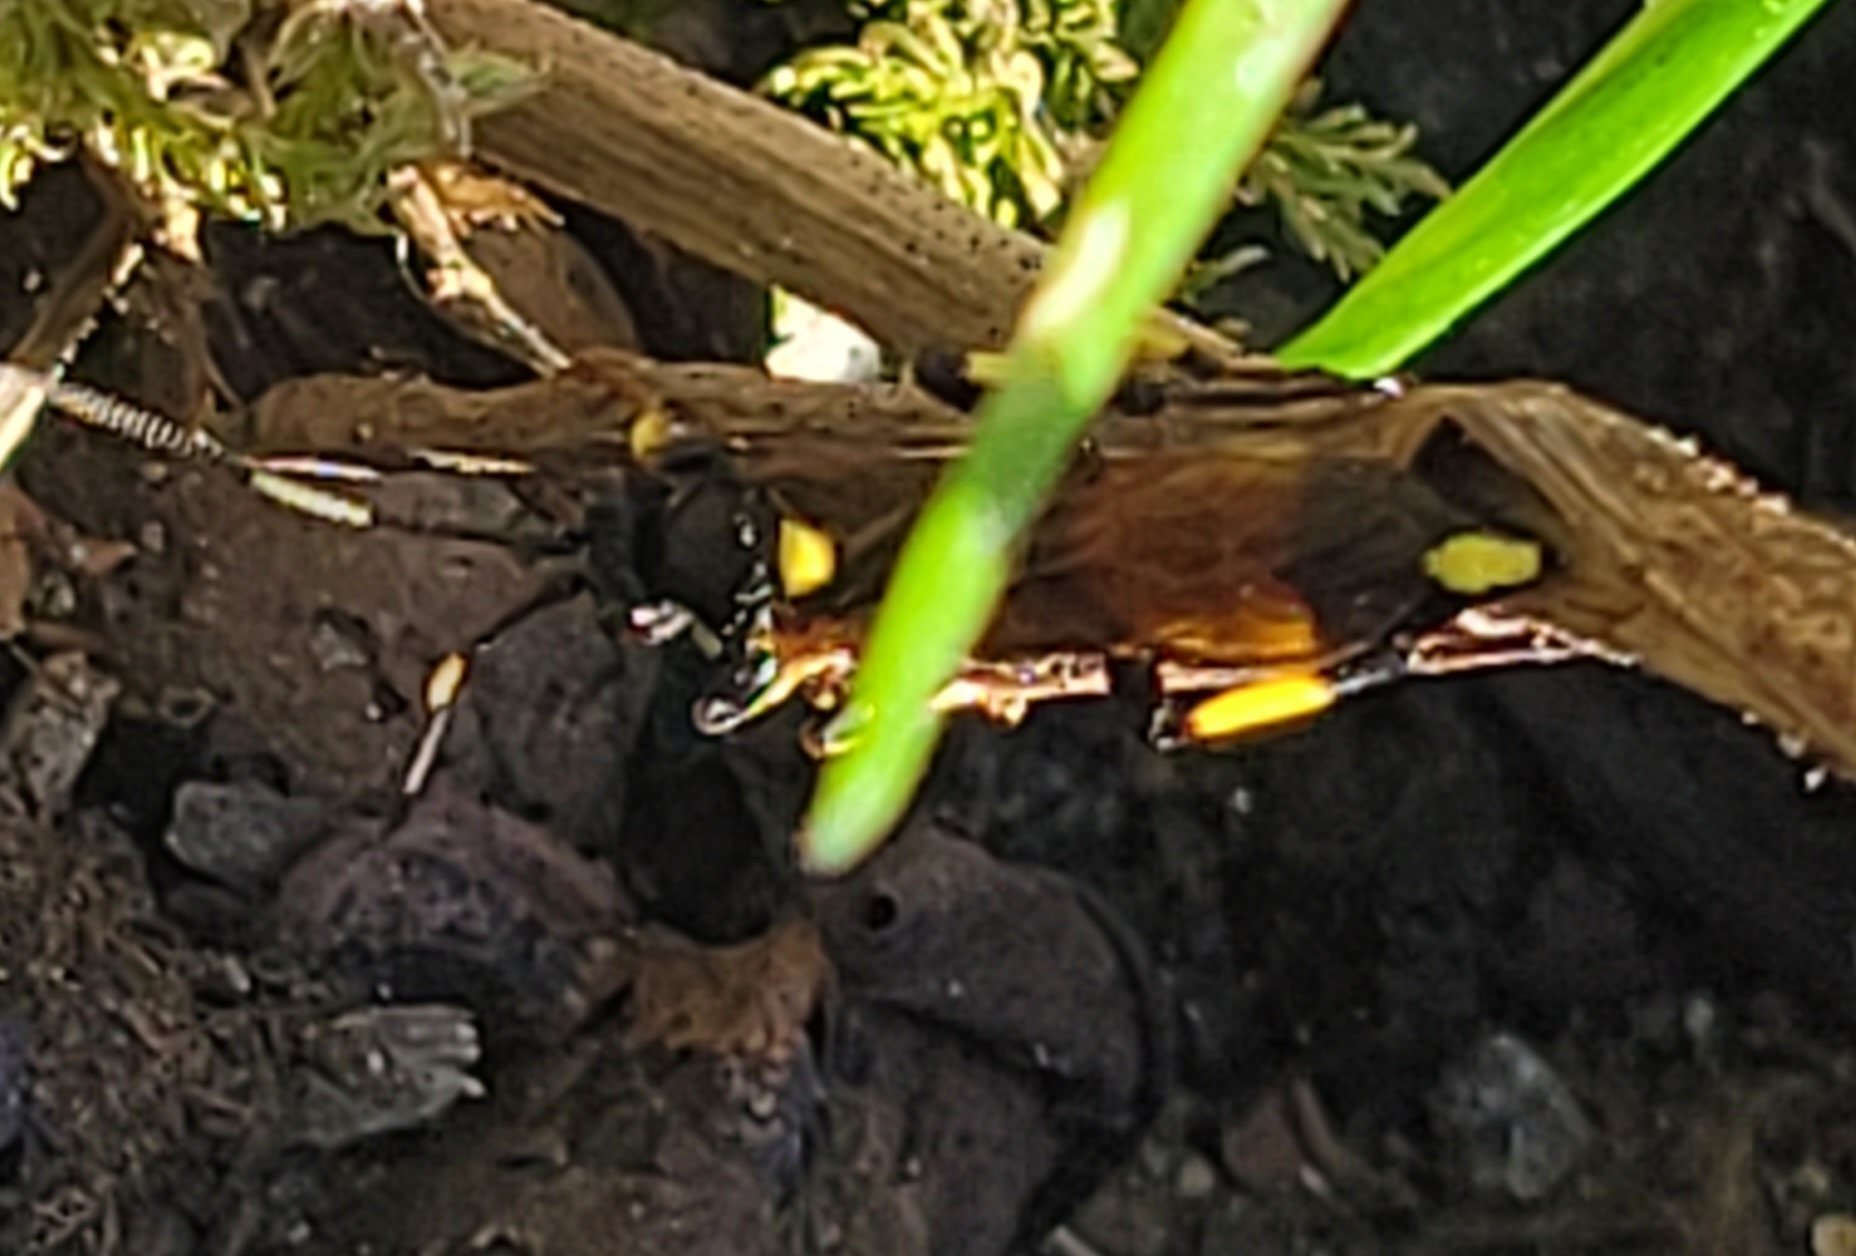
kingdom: Animalia
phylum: Arthropoda
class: Insecta
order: Hymenoptera
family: Ichneumonidae
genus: Ichneumon
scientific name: Ichneumon stramentor
